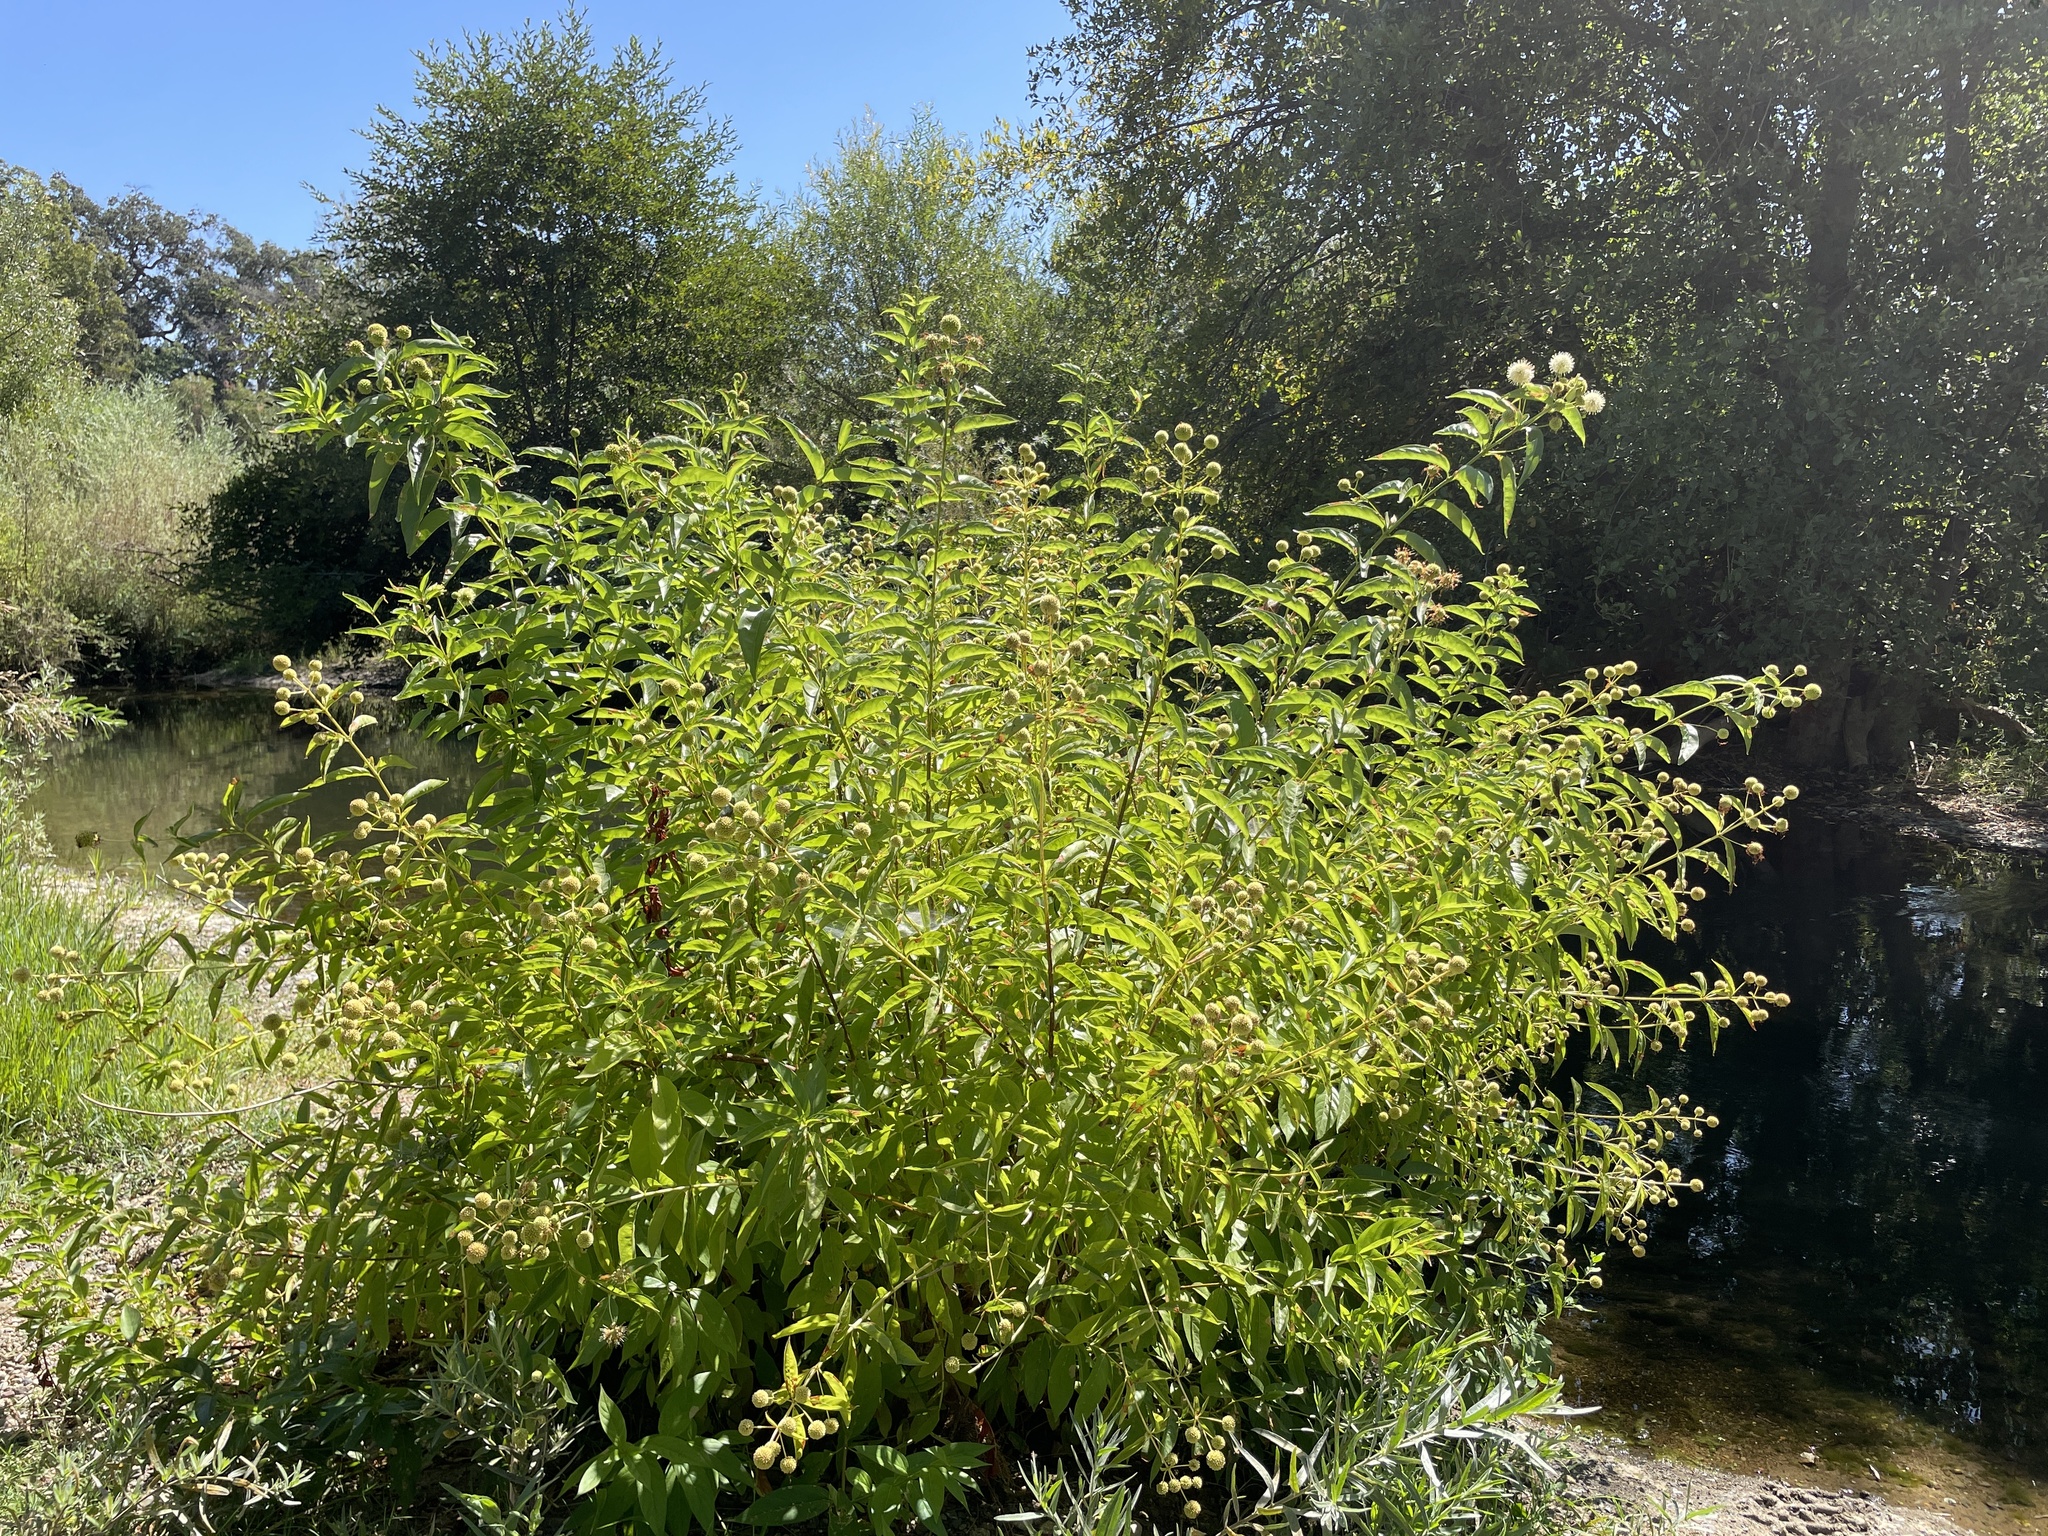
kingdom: Plantae
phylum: Tracheophyta
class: Magnoliopsida
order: Gentianales
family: Rubiaceae
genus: Cephalanthus
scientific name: Cephalanthus occidentalis
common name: Button-willow
